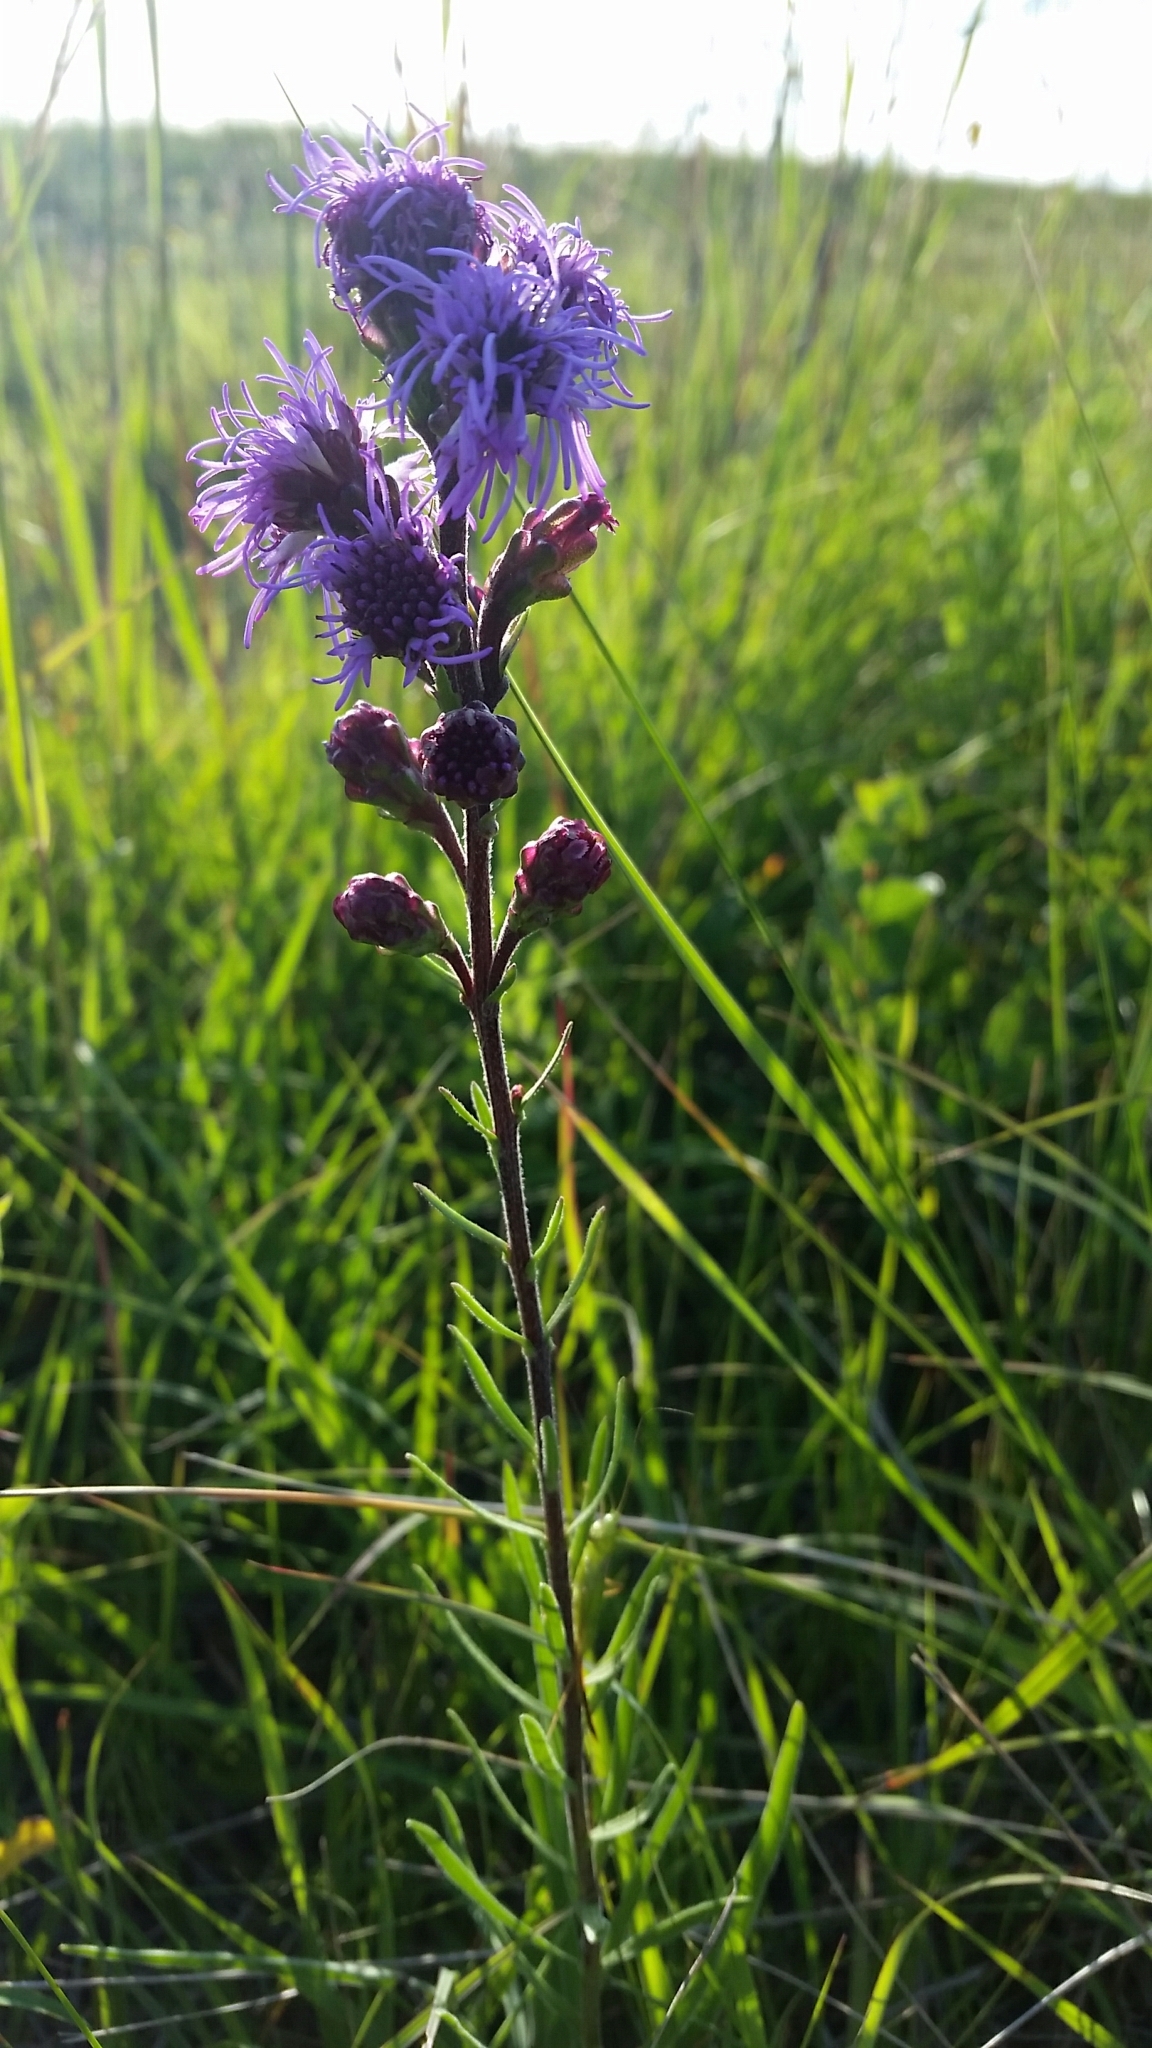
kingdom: Plantae
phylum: Tracheophyta
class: Magnoliopsida
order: Asterales
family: Asteraceae
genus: Liatris
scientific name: Liatris ligulistylis
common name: Northern plains gayfeather
